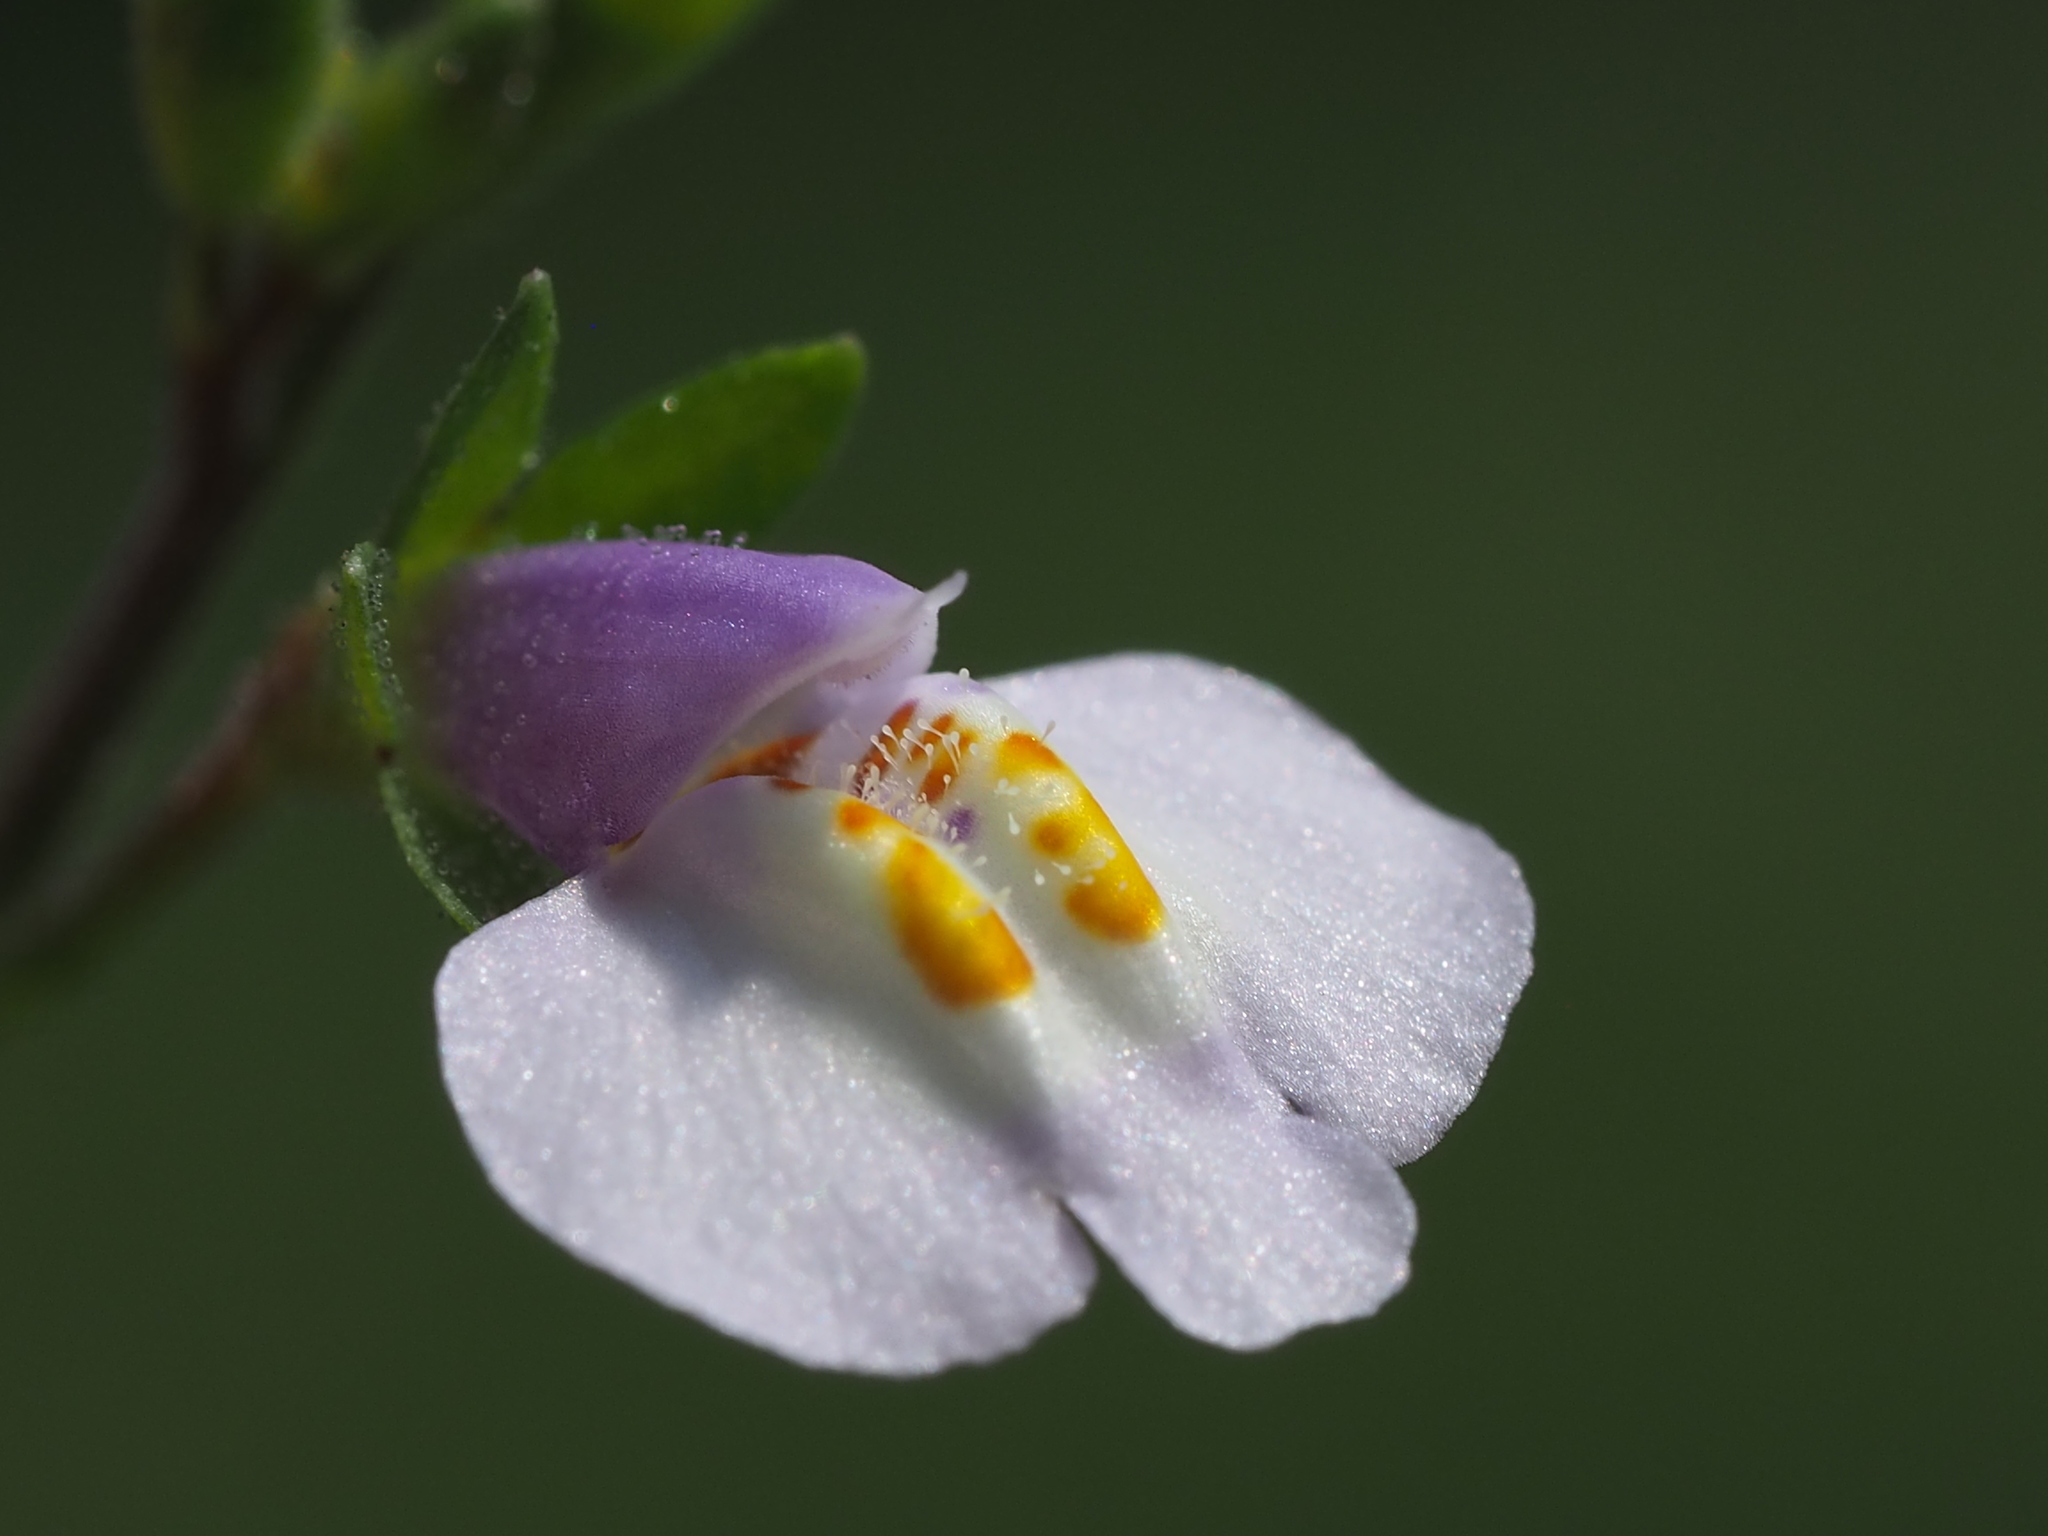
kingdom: Plantae
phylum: Tracheophyta
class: Magnoliopsida
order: Lamiales
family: Mazaceae
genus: Mazus
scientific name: Mazus pumilus
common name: Japanese mazus
